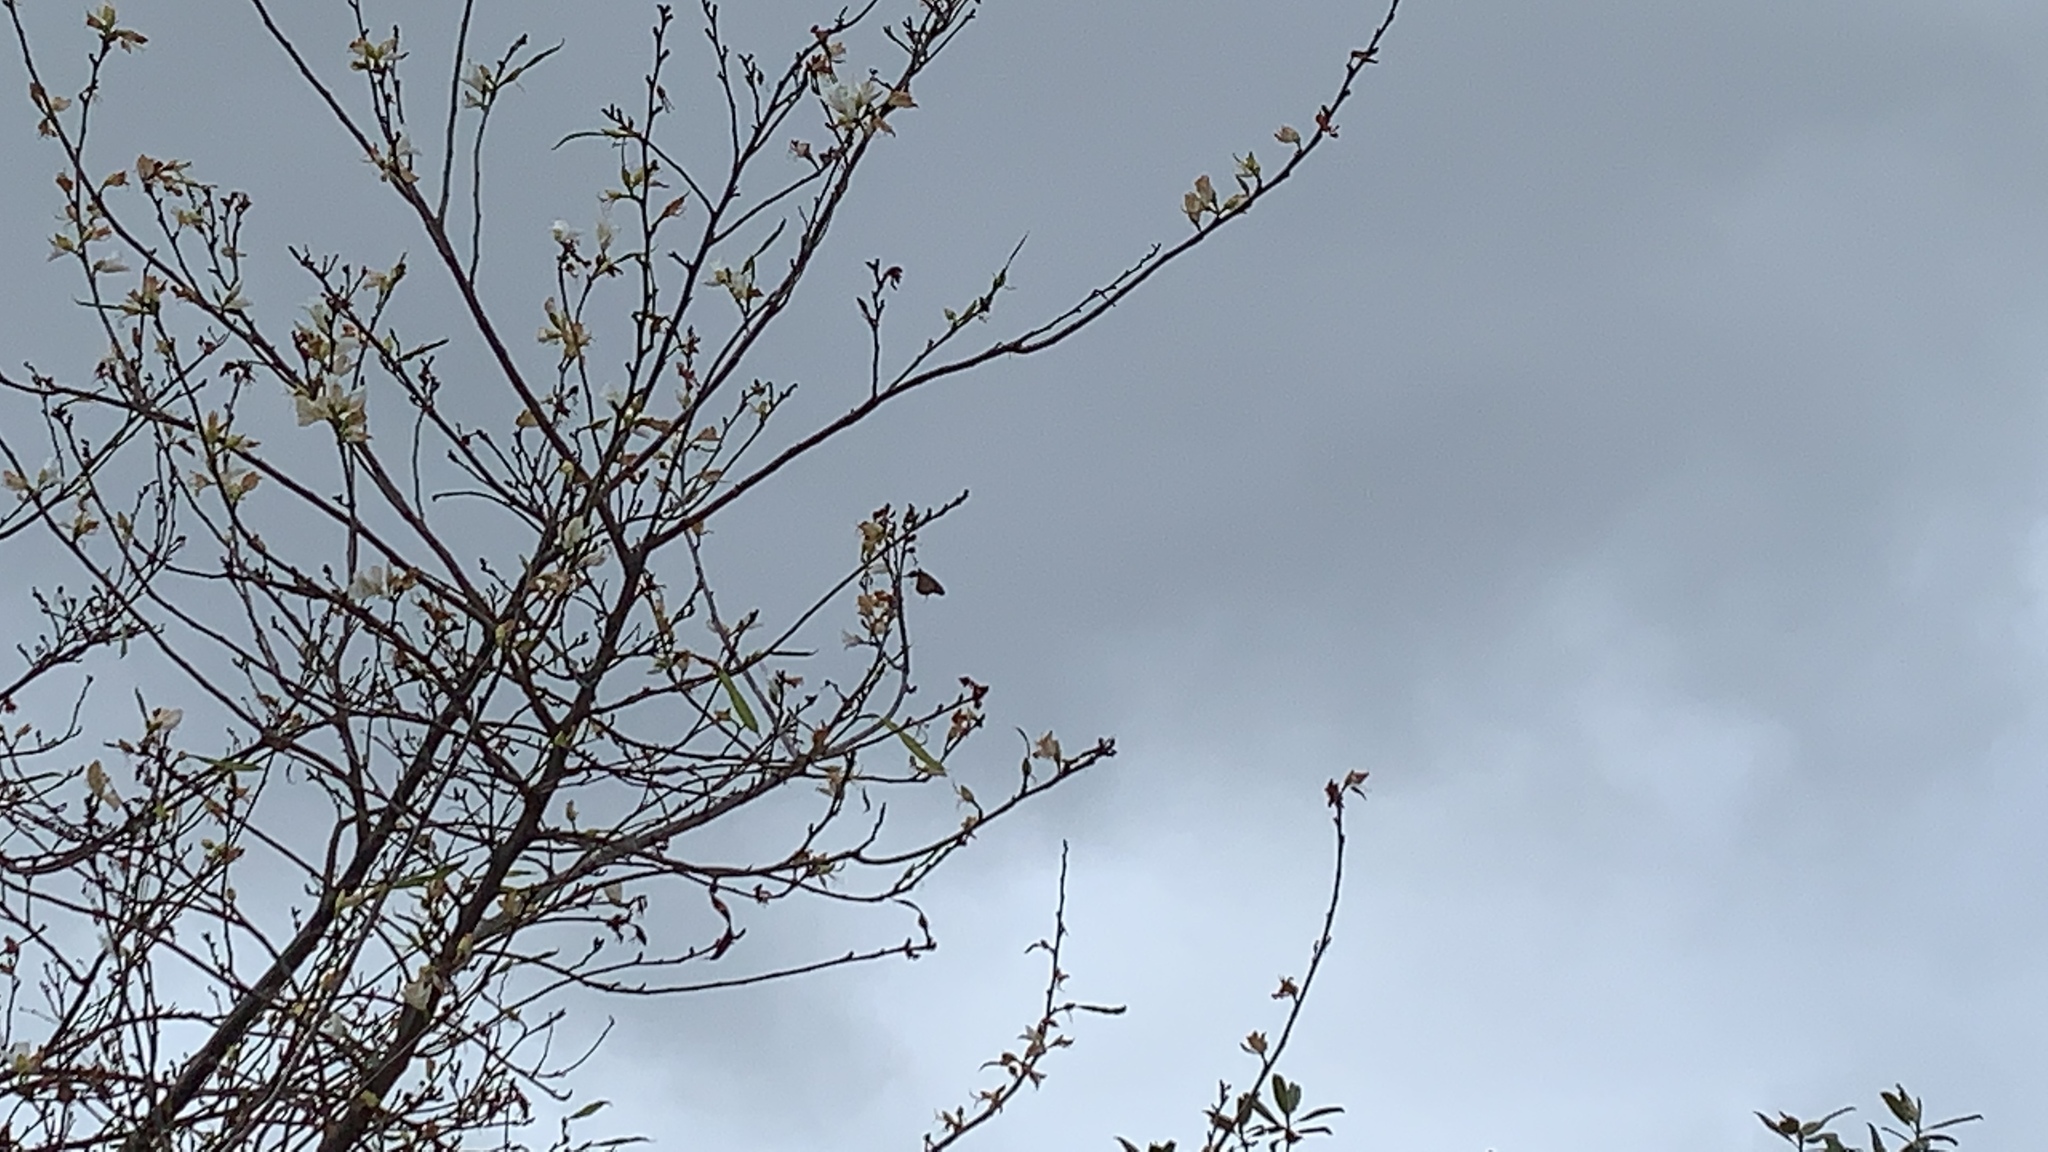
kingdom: Animalia
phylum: Arthropoda
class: Insecta
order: Lepidoptera
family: Nymphalidae
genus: Danaus
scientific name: Danaus plexippus
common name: Monarch
